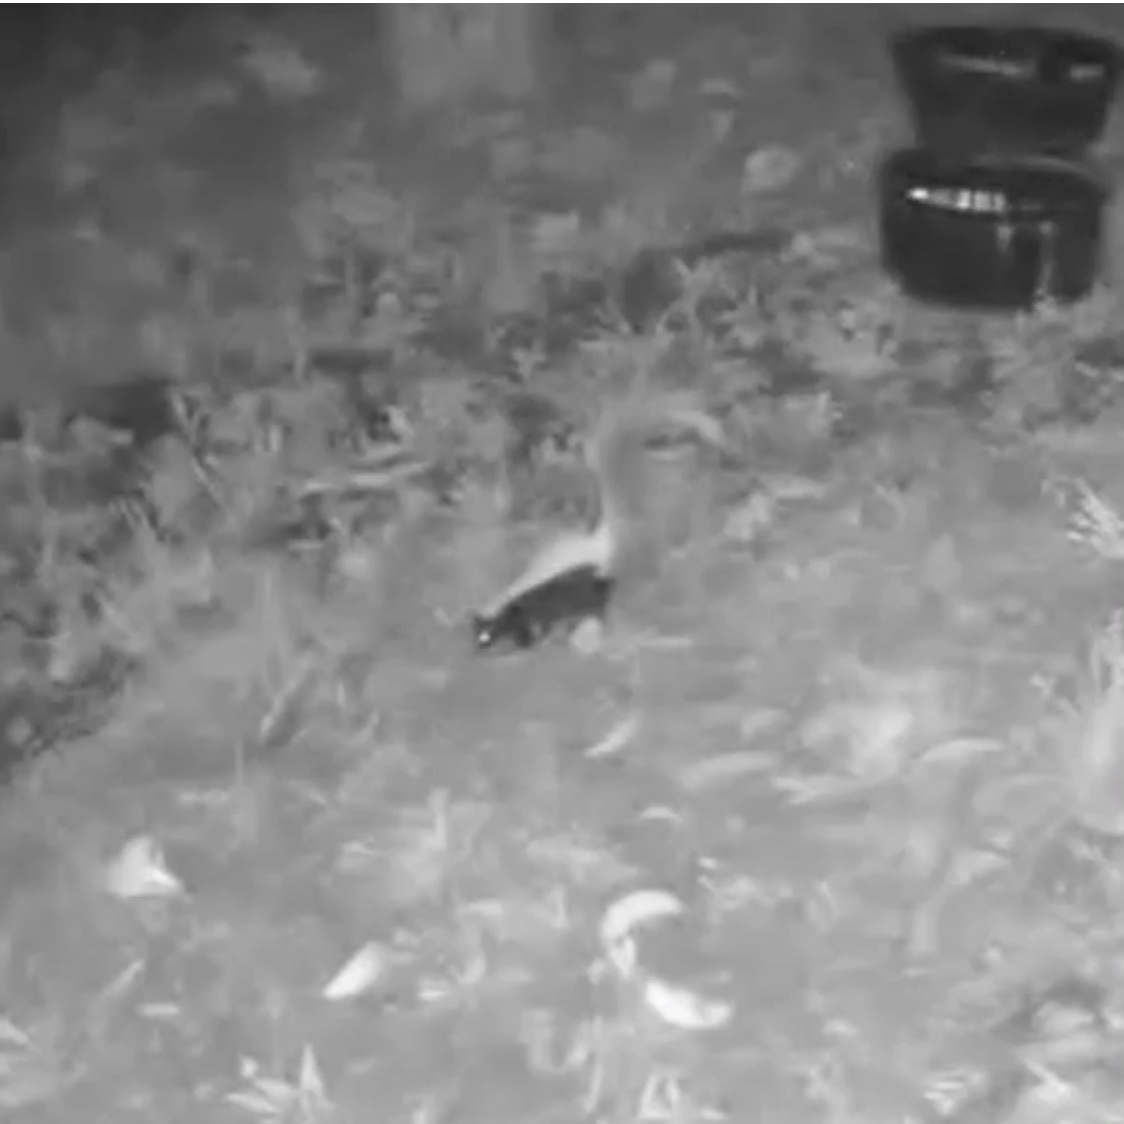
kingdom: Animalia
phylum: Chordata
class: Mammalia
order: Carnivora
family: Mephitidae
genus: Mephitis
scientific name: Mephitis mephitis
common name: Striped skunk
